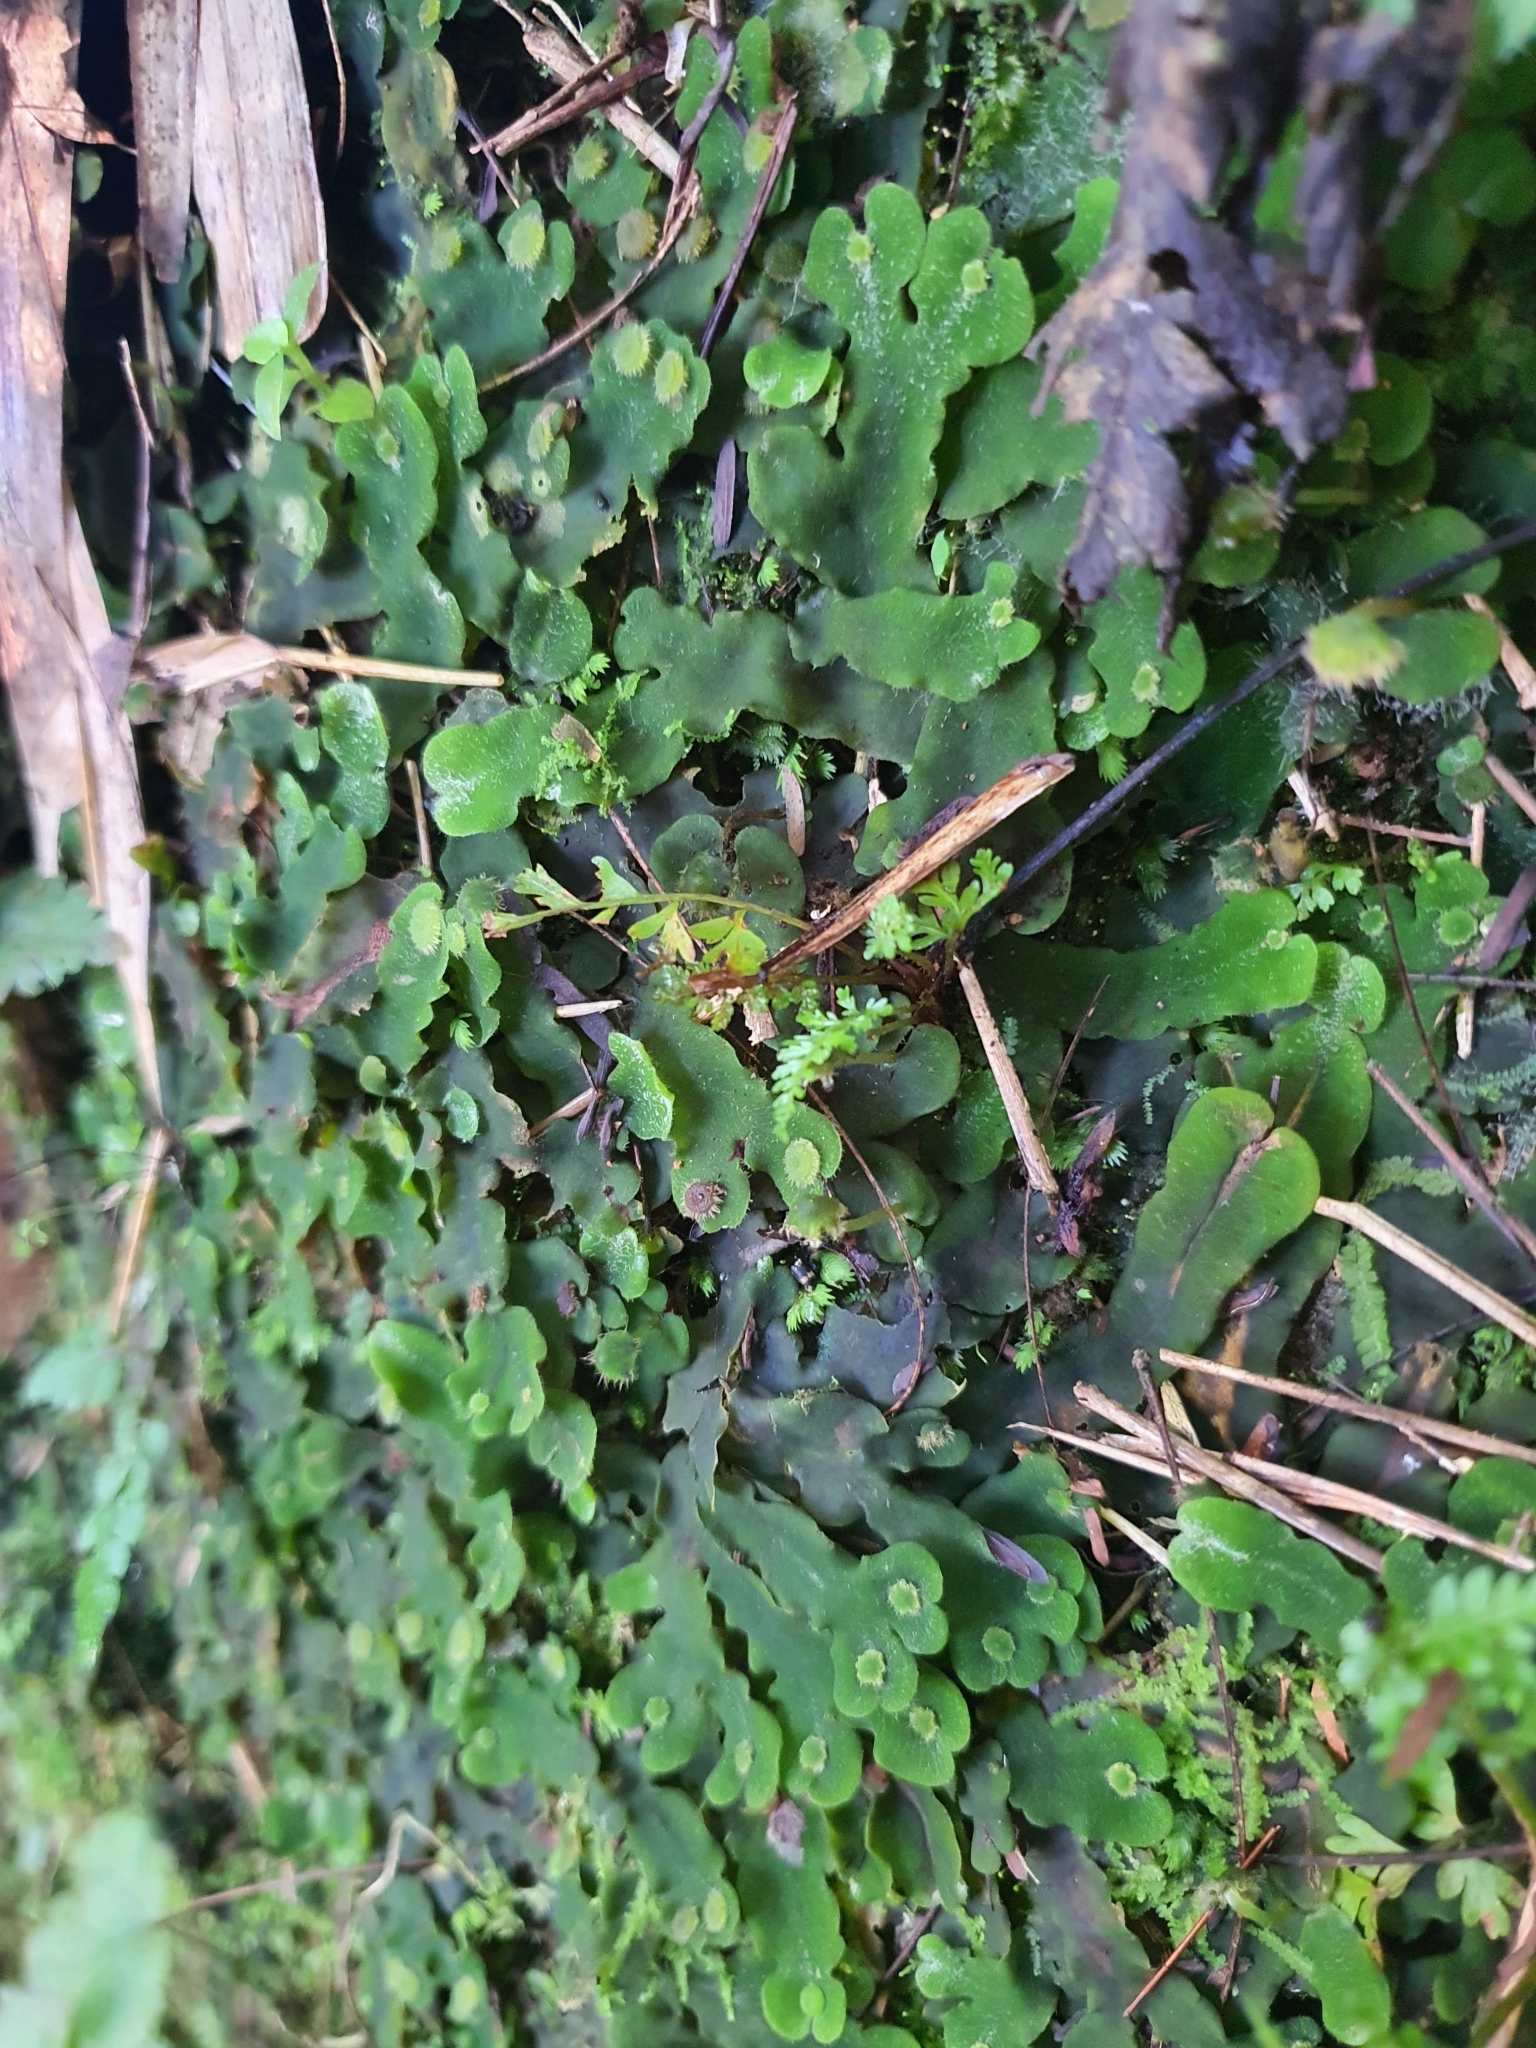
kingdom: Plantae
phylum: Marchantiophyta
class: Marchantiopsida
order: Marchantiales
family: Dumortieraceae
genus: Dumortiera
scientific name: Dumortiera hirsuta
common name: Dumortier's liverwort
